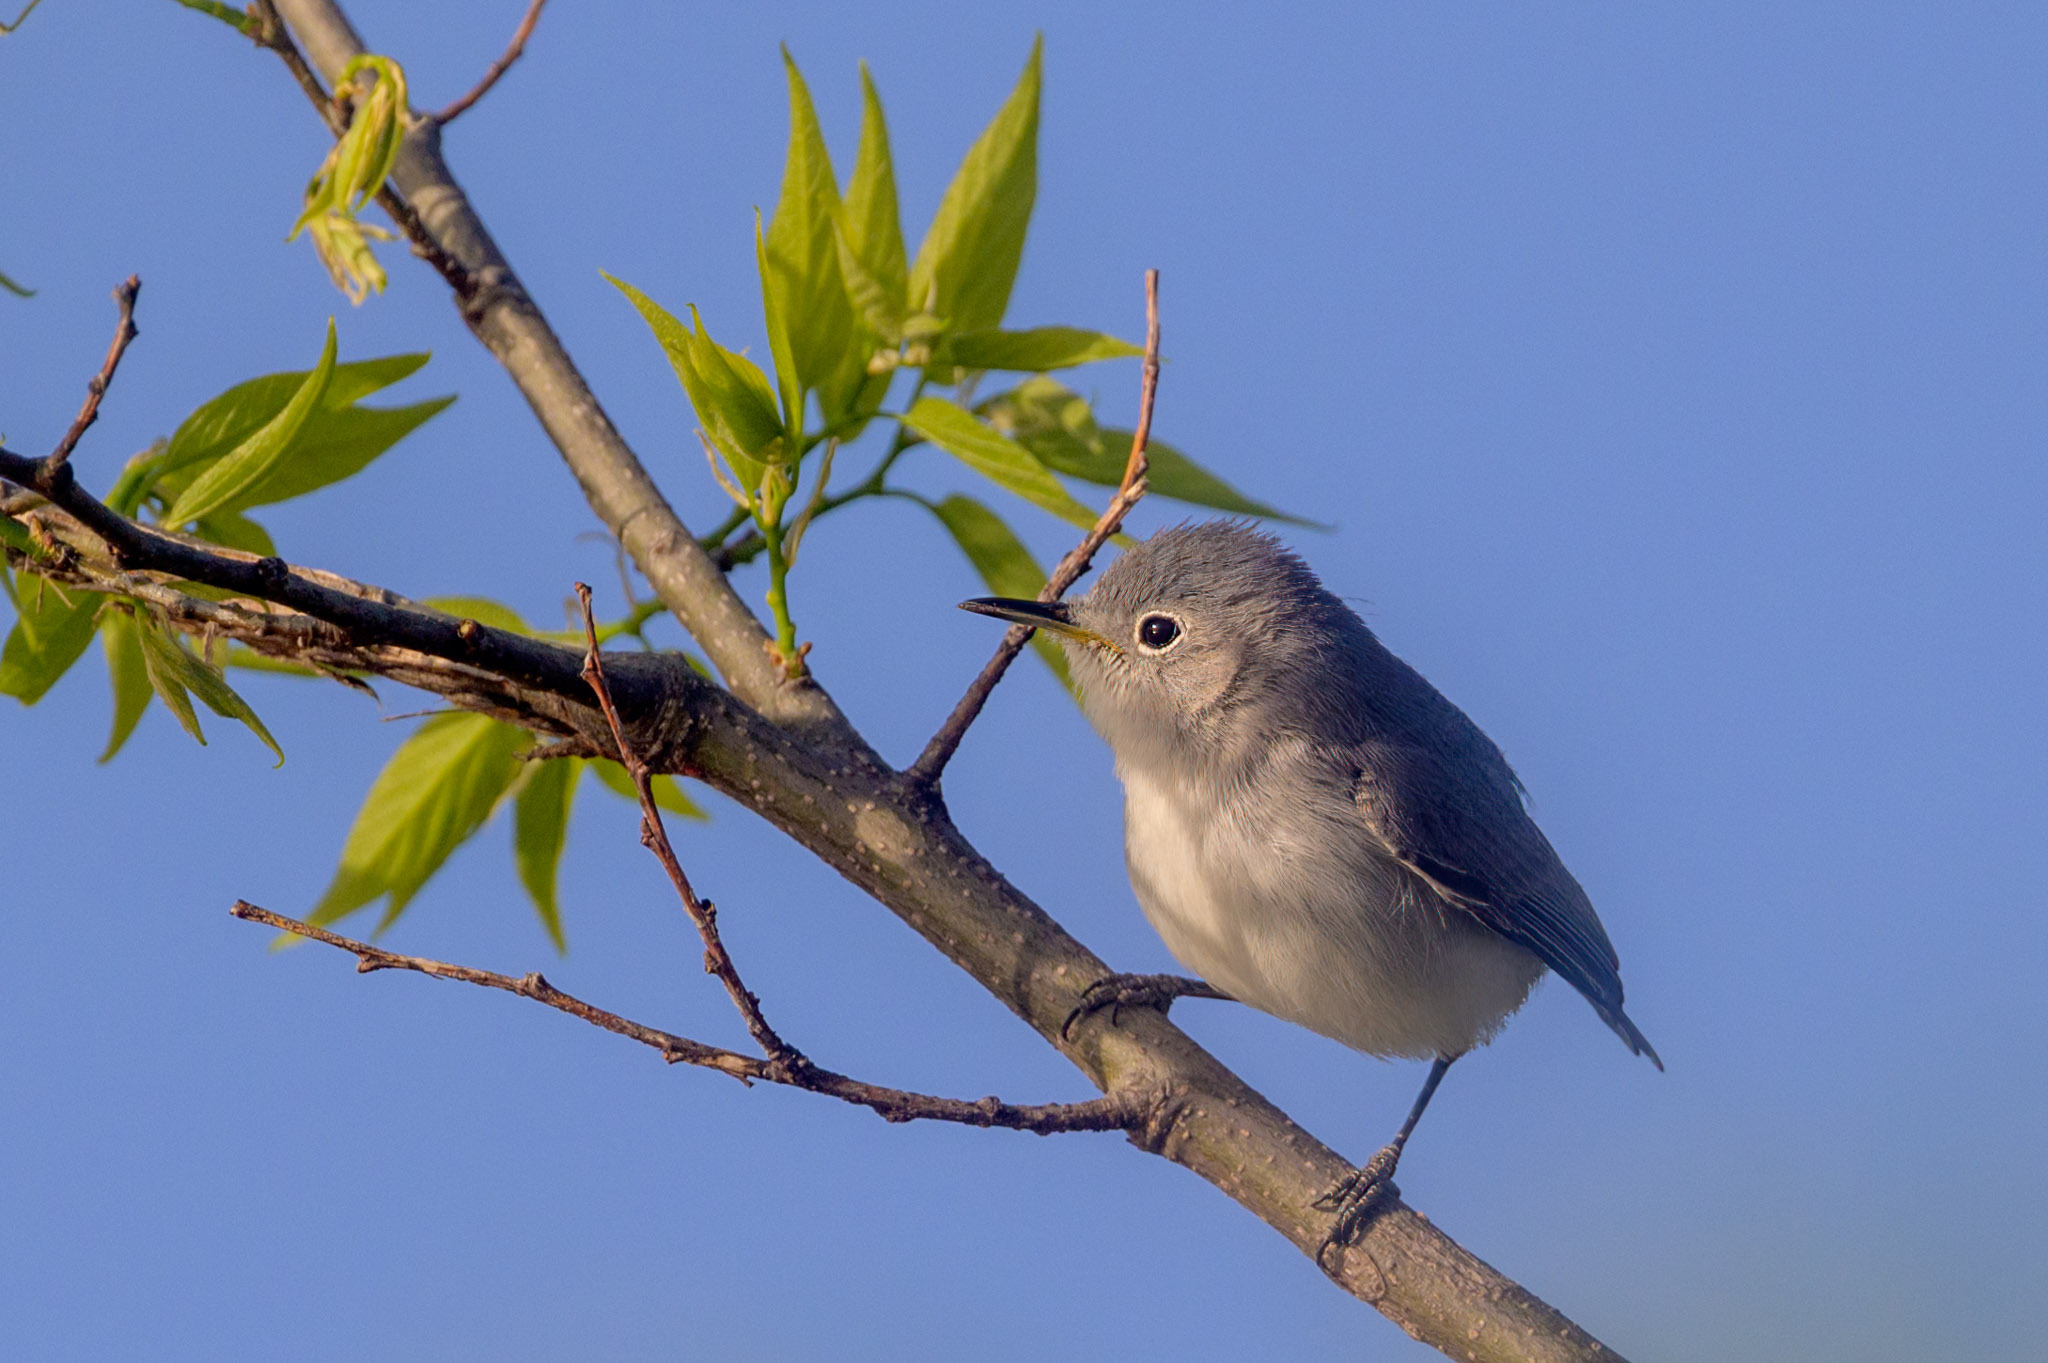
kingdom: Animalia
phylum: Chordata
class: Aves
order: Passeriformes
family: Polioptilidae
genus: Polioptila
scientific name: Polioptila caerulea
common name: Blue-gray gnatcatcher
